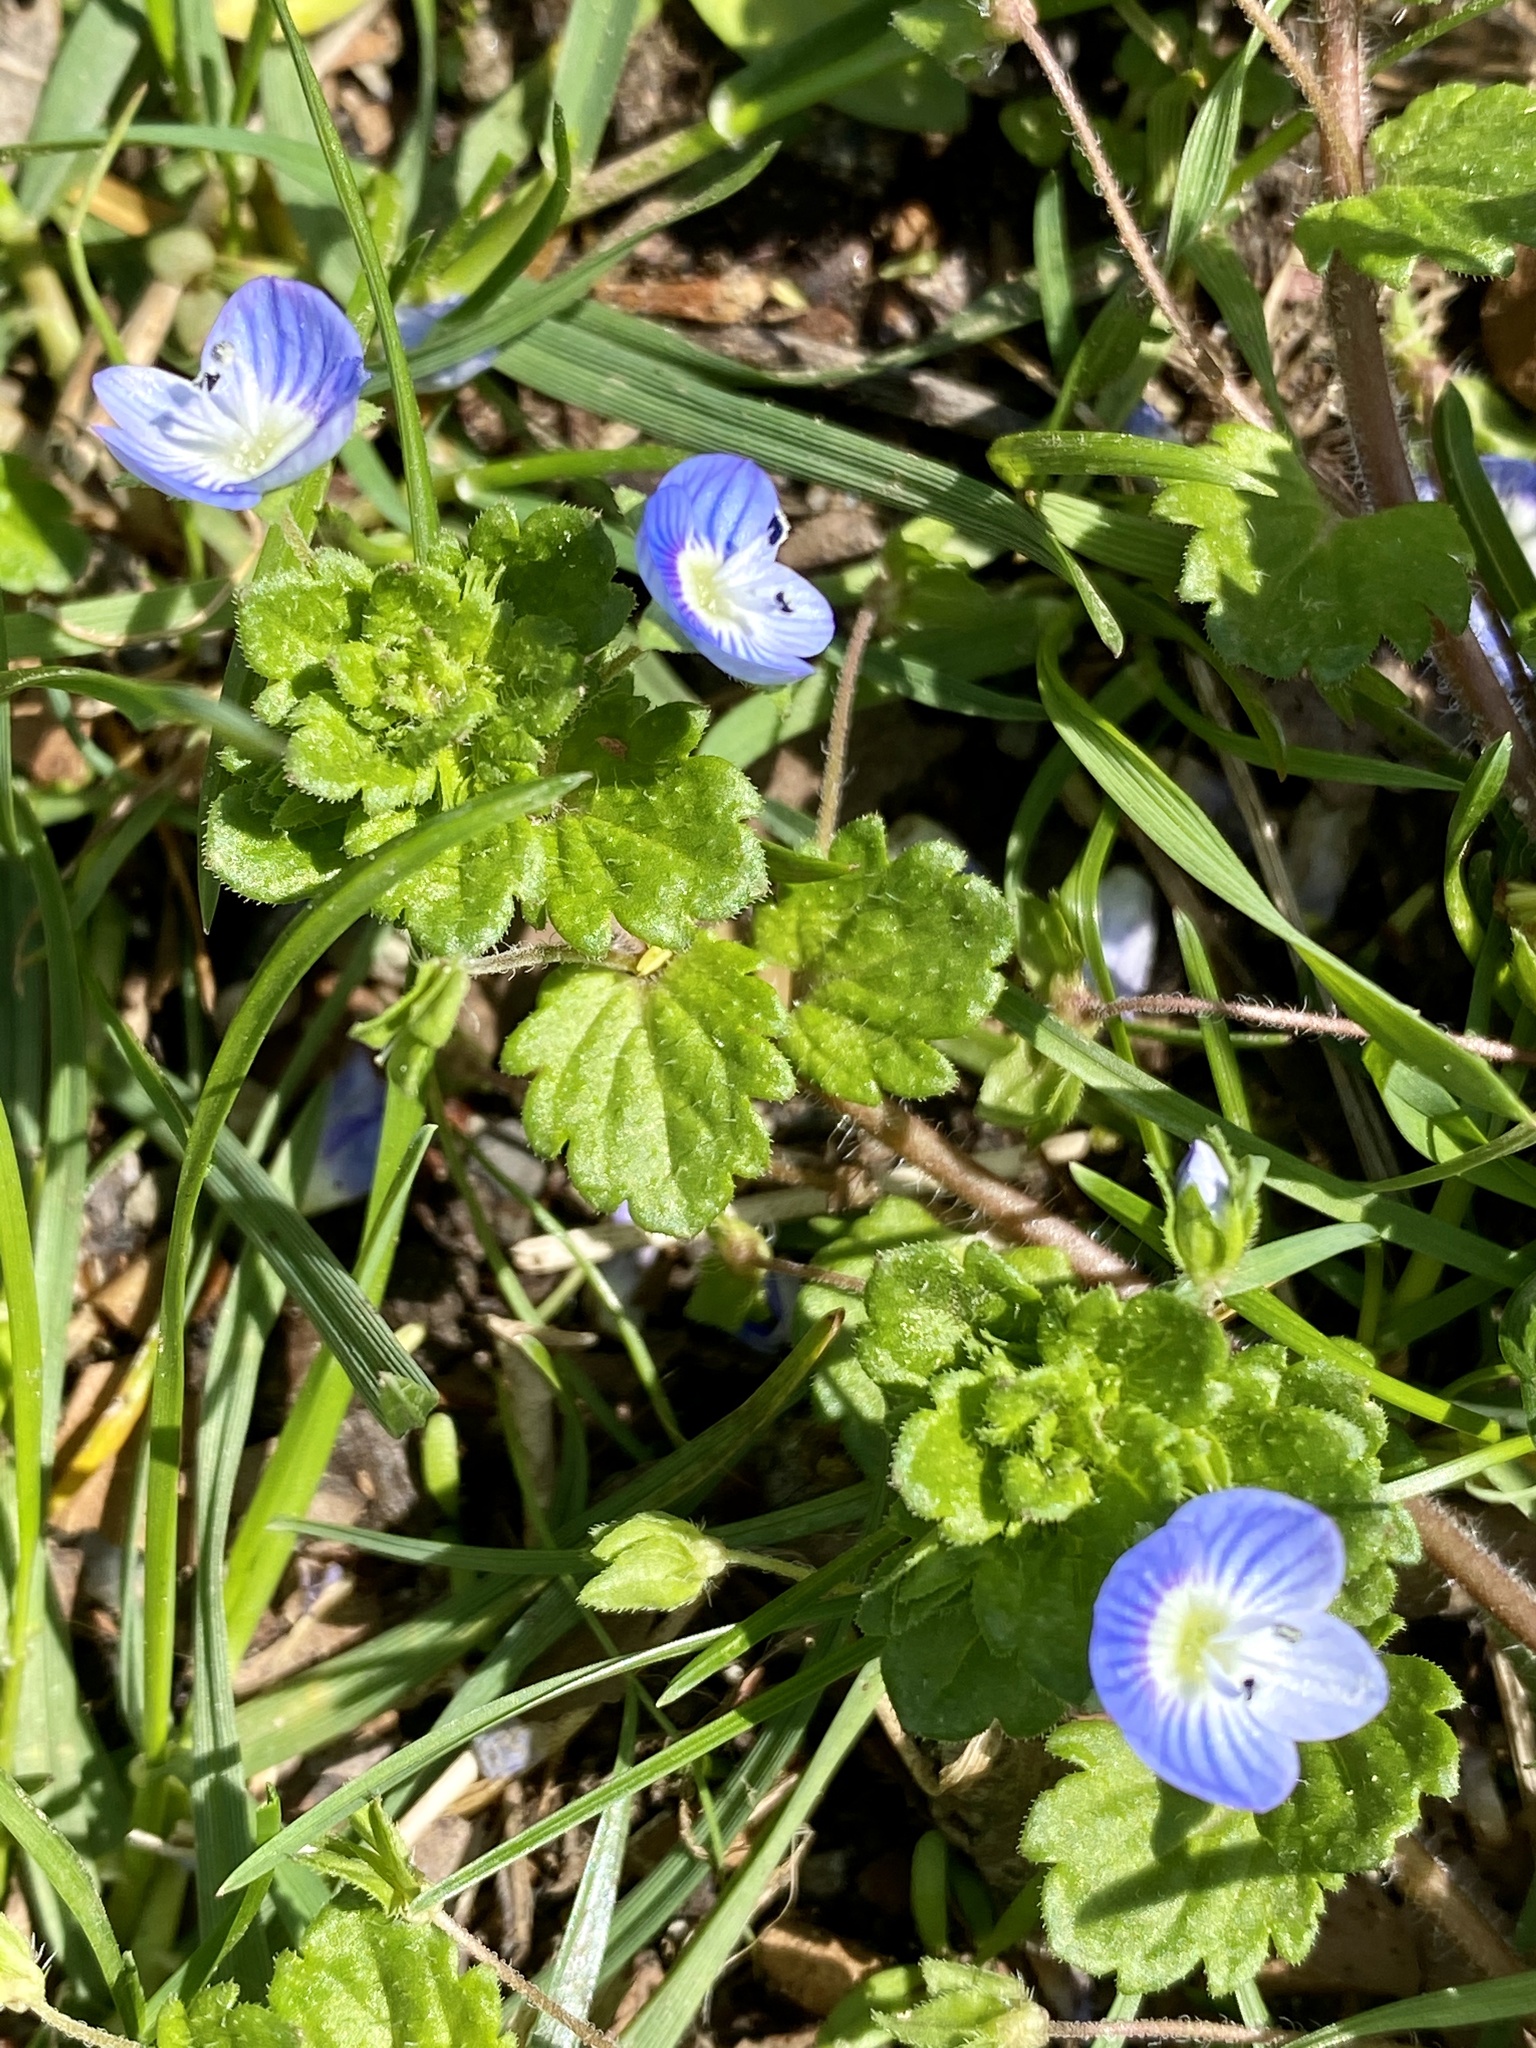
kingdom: Plantae
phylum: Tracheophyta
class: Magnoliopsida
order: Lamiales
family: Plantaginaceae
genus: Veronica
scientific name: Veronica persica
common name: Common field-speedwell
